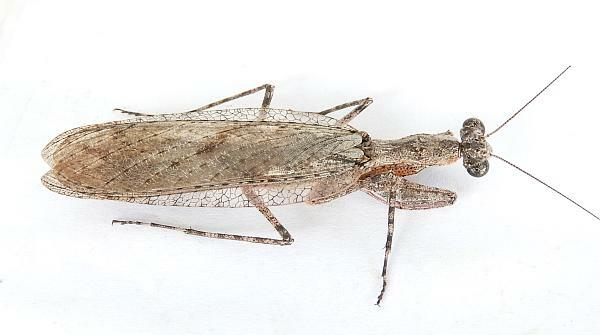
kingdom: Animalia
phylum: Arthropoda
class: Insecta
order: Mantodea
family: Epaphroditidae
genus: Gonatista
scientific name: Gonatista grisea
